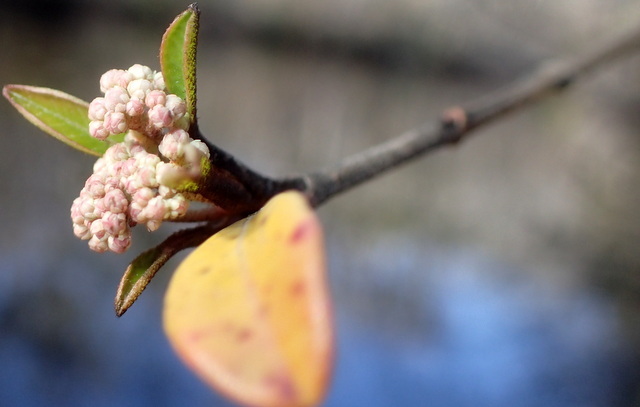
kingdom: Plantae
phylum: Tracheophyta
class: Magnoliopsida
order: Dipsacales
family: Viburnaceae
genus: Viburnum
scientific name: Viburnum obovatum
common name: Walter's viburnum
